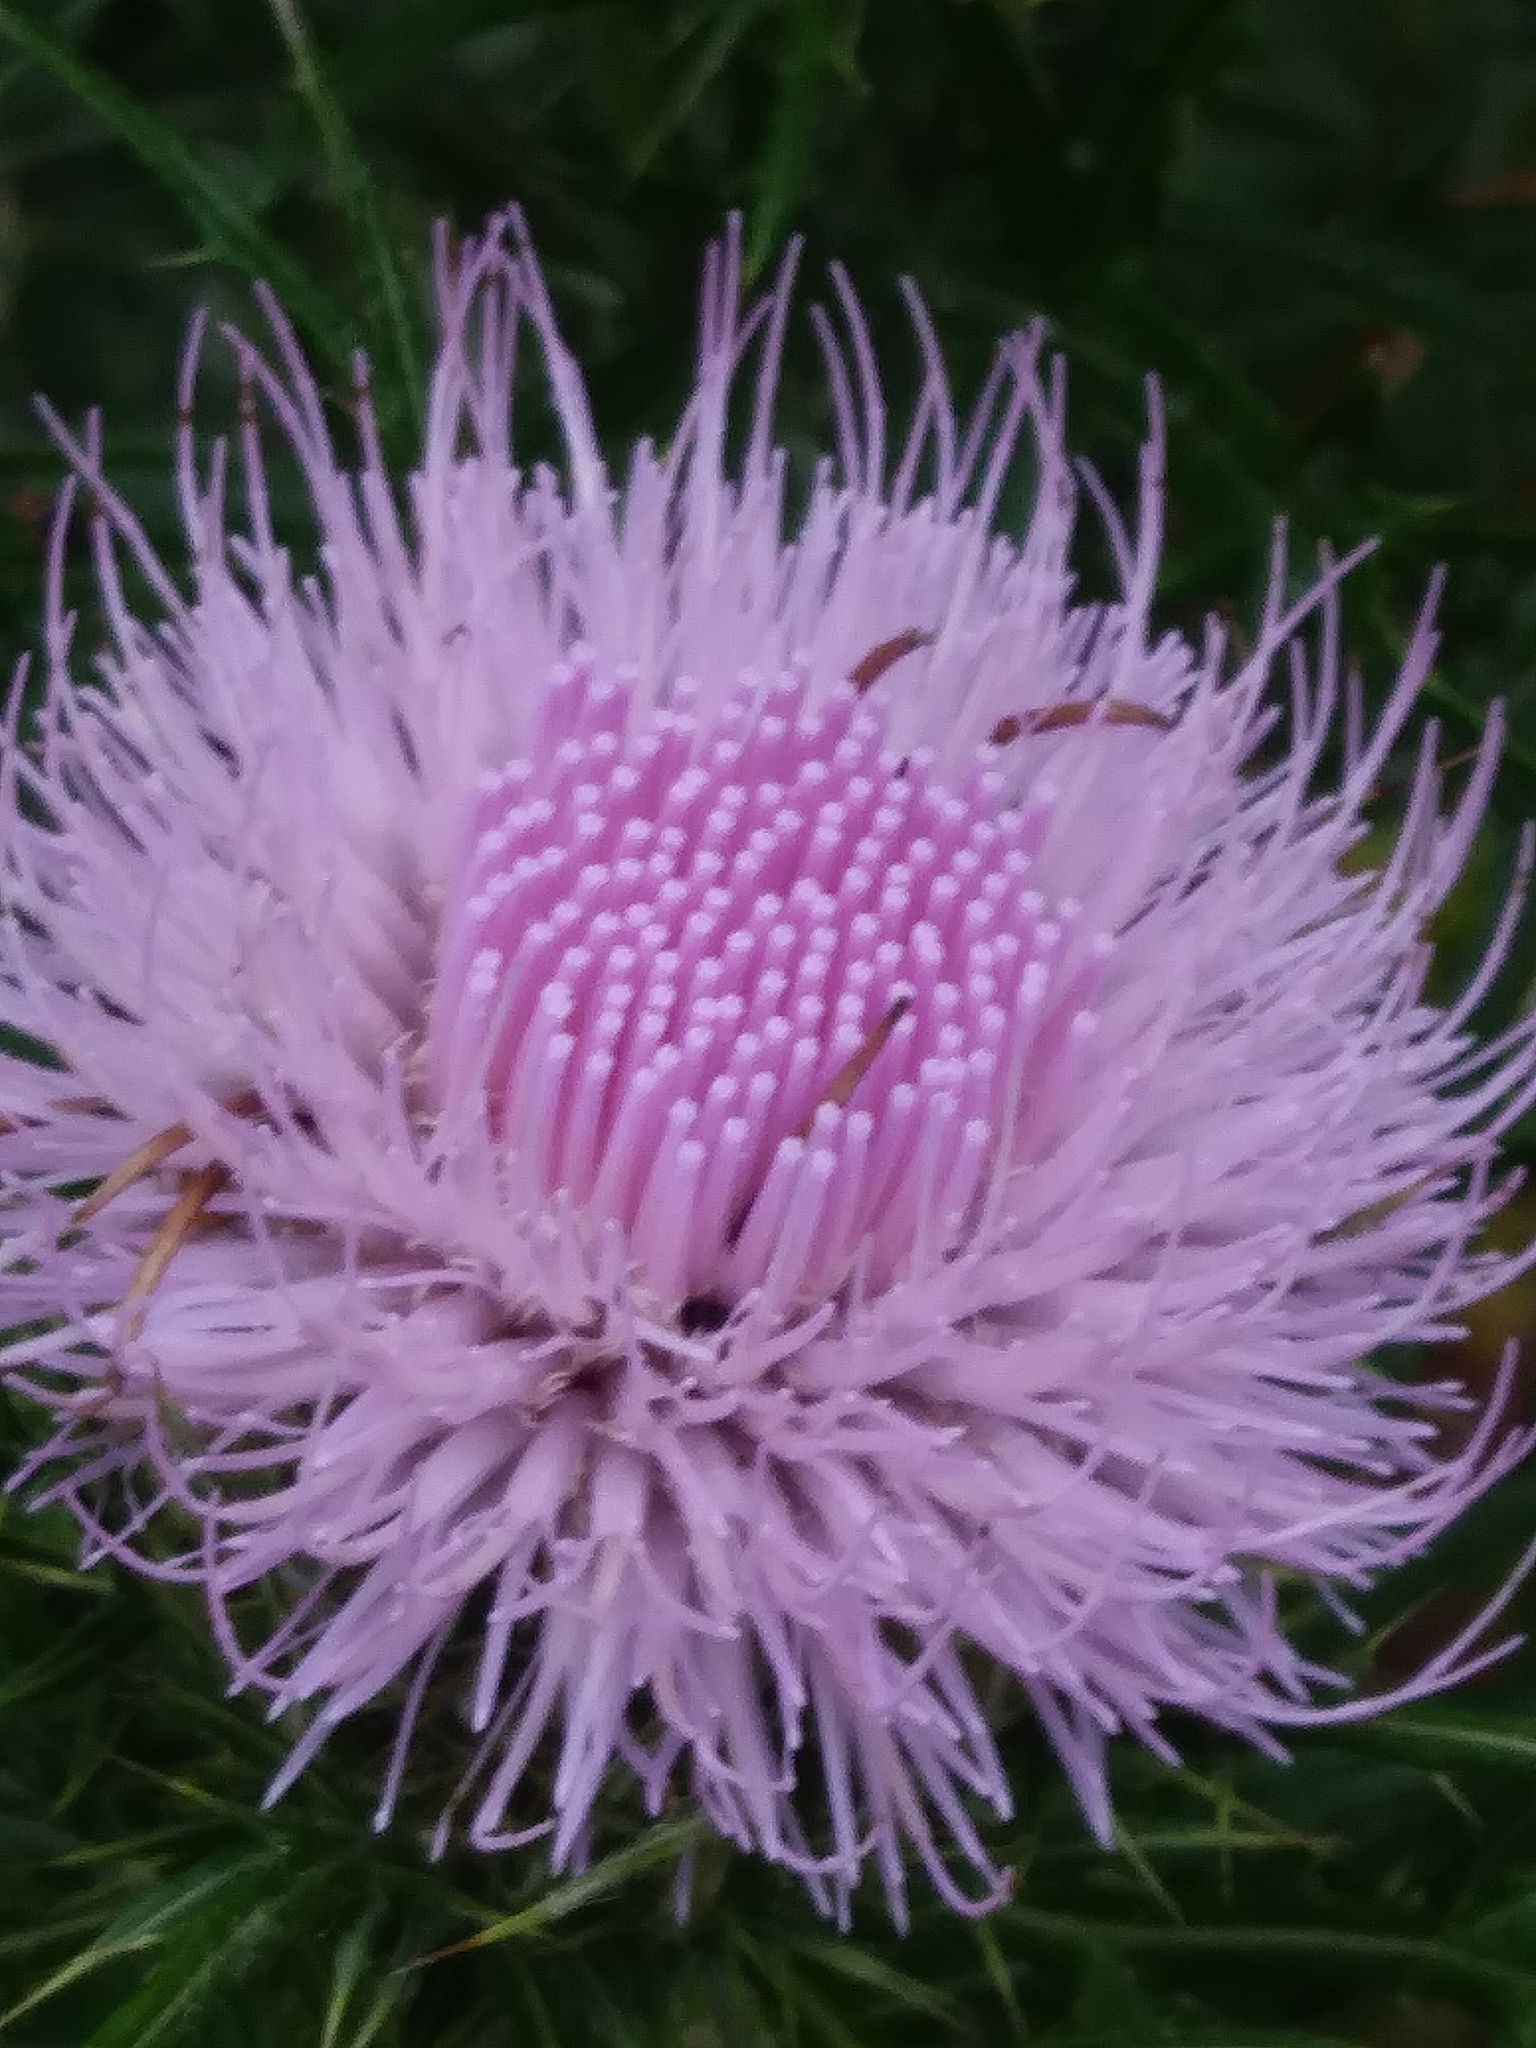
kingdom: Plantae
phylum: Tracheophyta
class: Magnoliopsida
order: Asterales
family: Asteraceae
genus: Cirsium
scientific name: Cirsium discolor
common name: Field thistle
